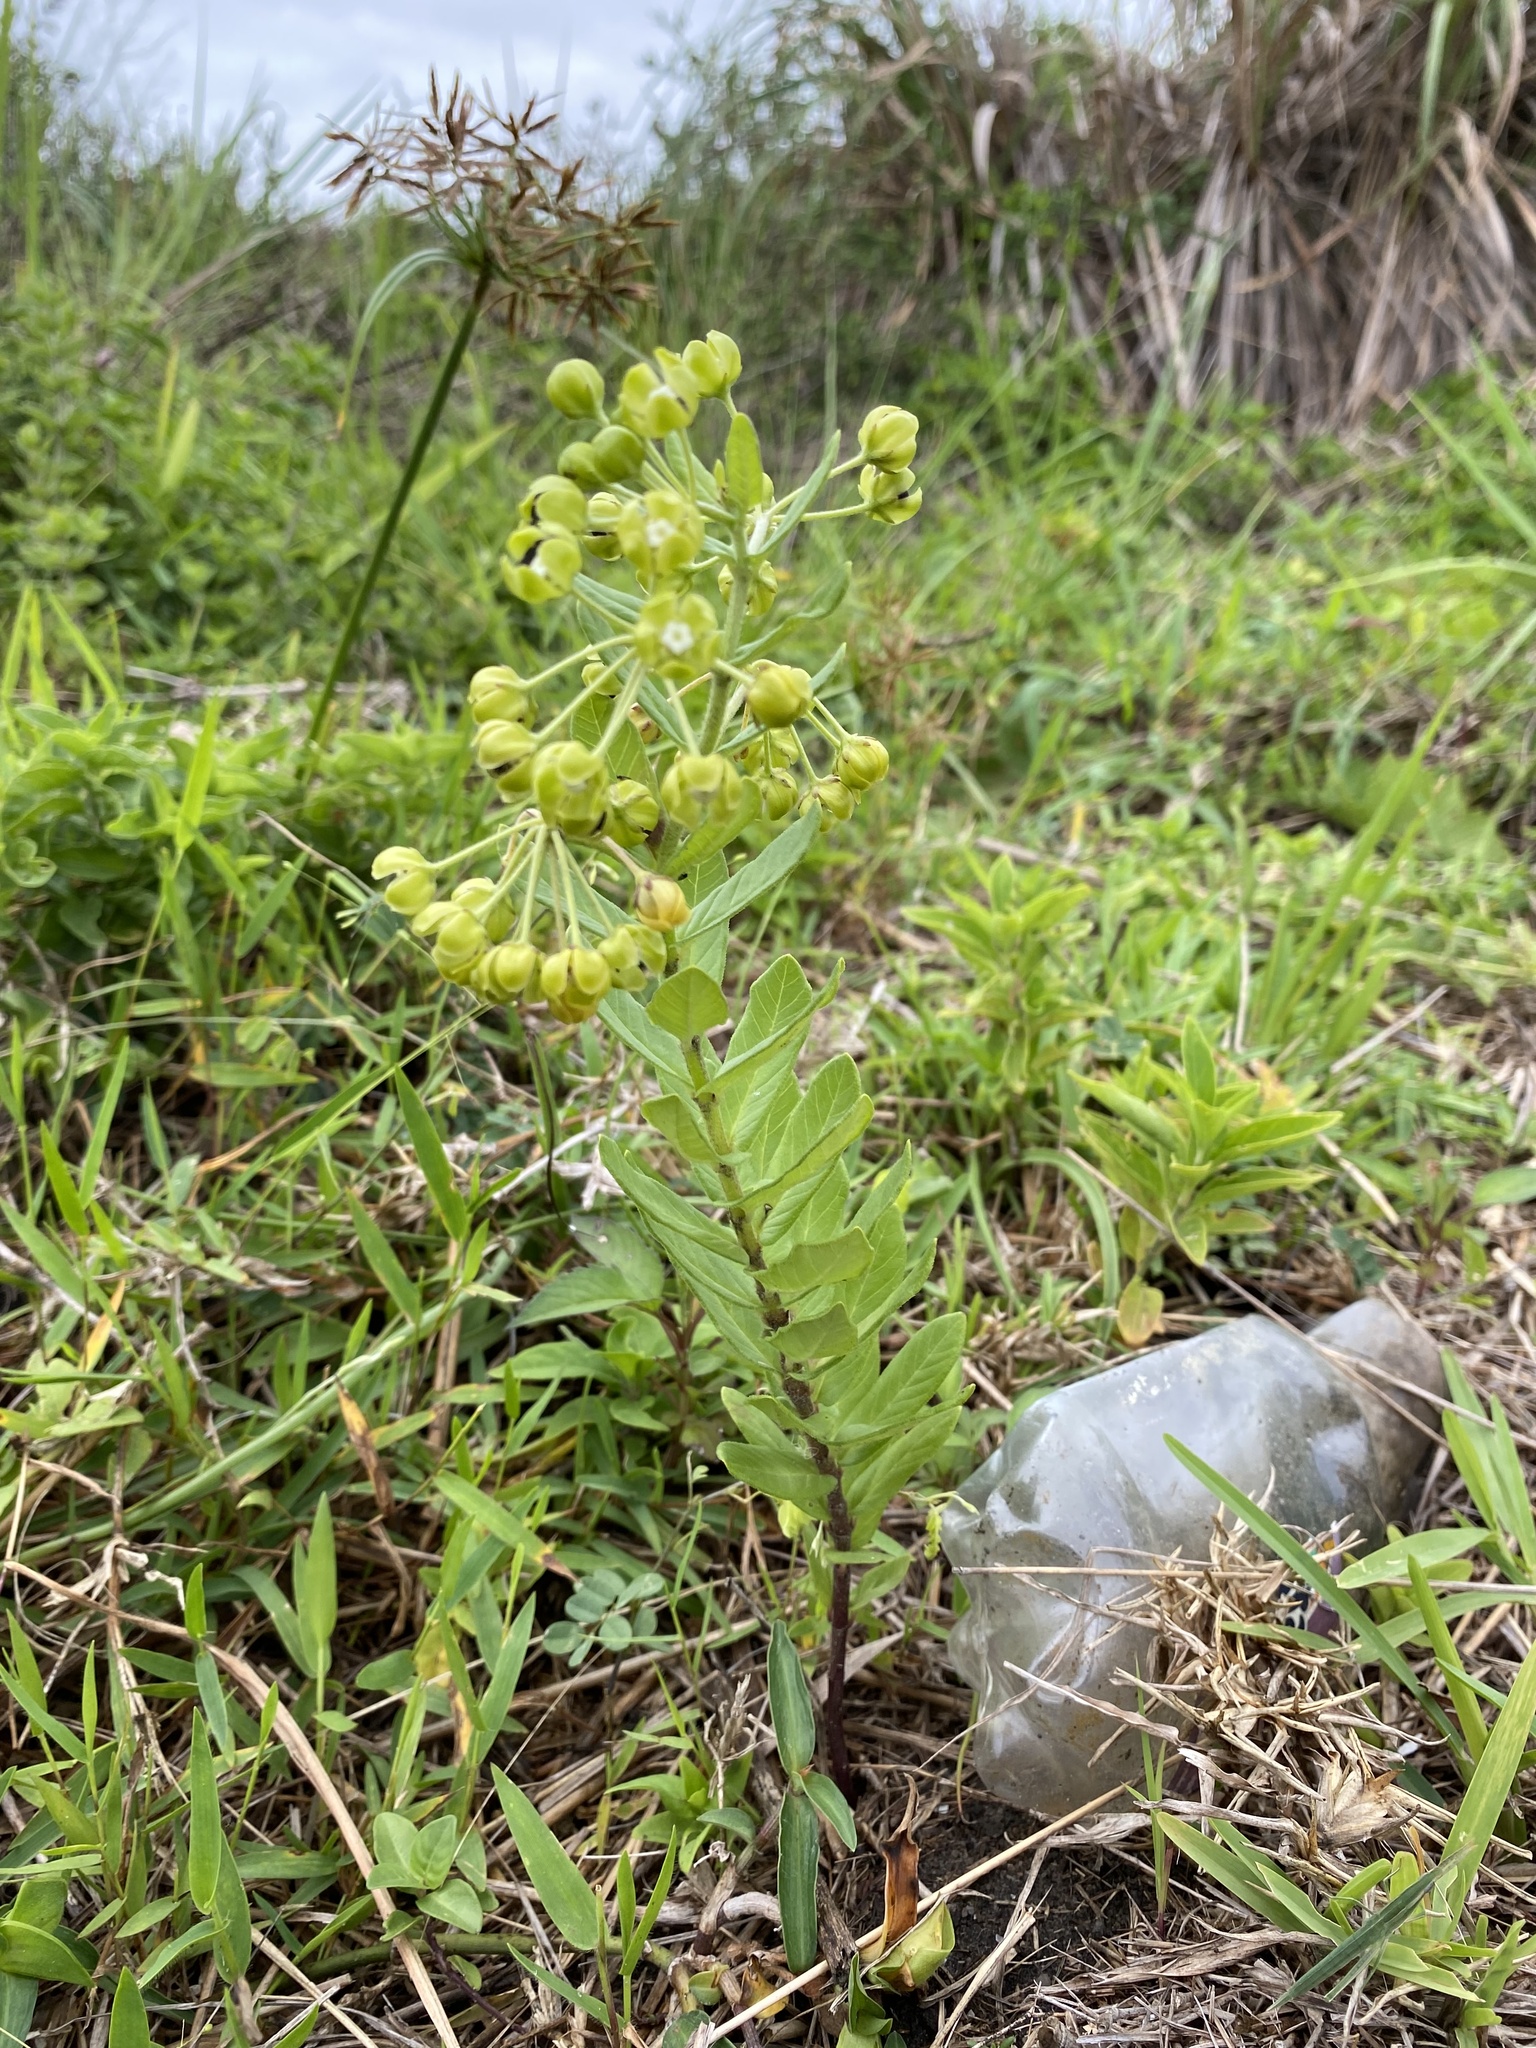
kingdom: Plantae
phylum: Tracheophyta
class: Magnoliopsida
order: Gentianales
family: Apocynaceae
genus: Schizoglossum
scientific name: Schizoglossum atropurpureum
